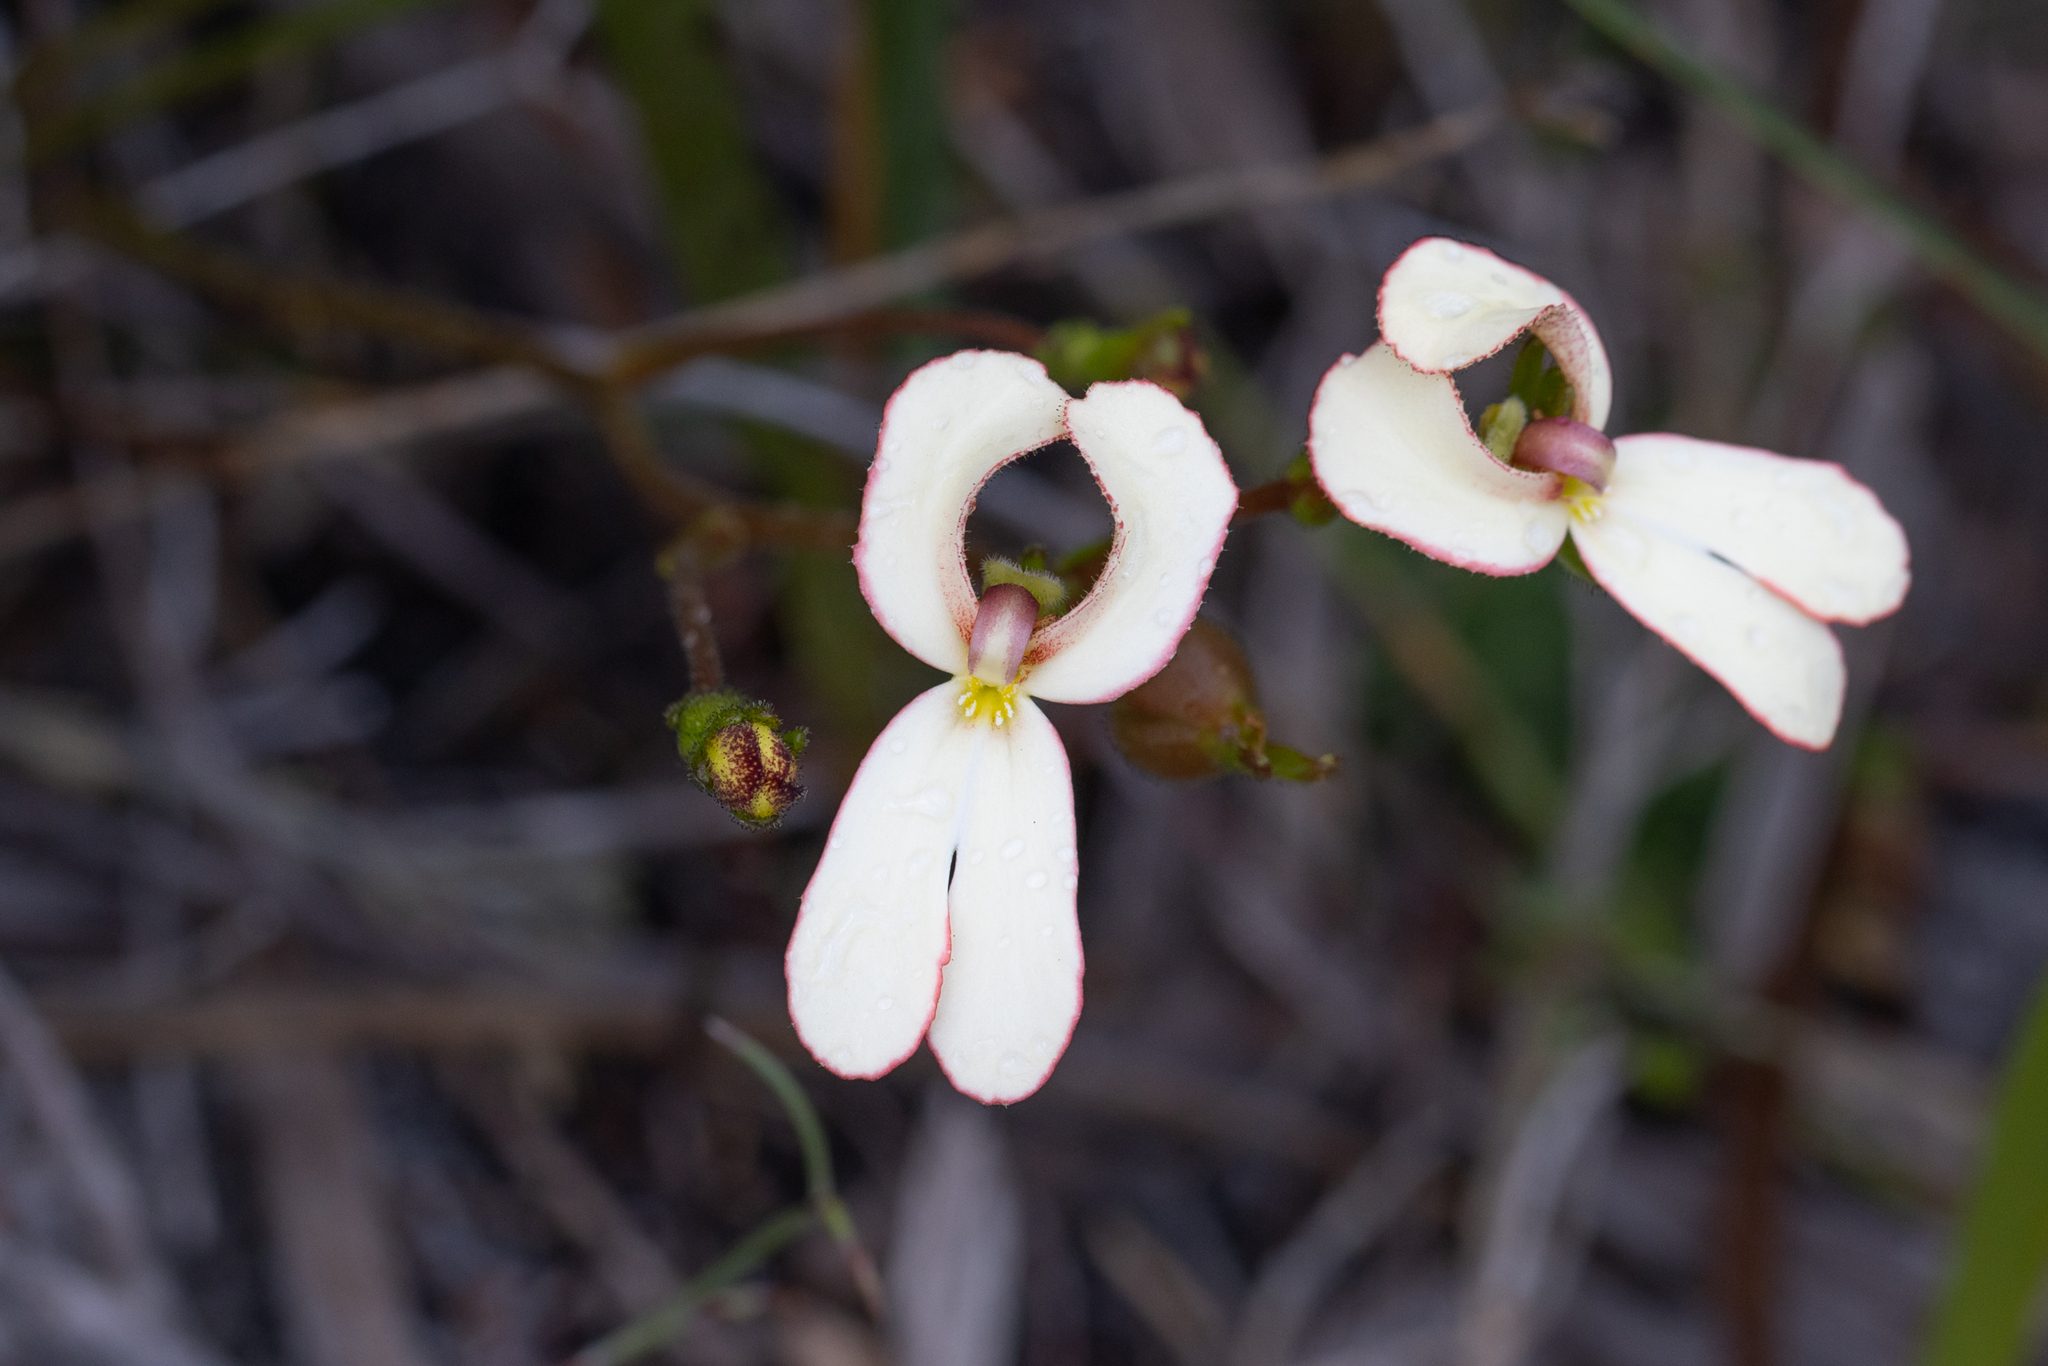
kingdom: Plantae
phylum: Tracheophyta
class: Magnoliopsida
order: Asterales
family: Stylidiaceae
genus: Stylidium
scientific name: Stylidium schoenoides
